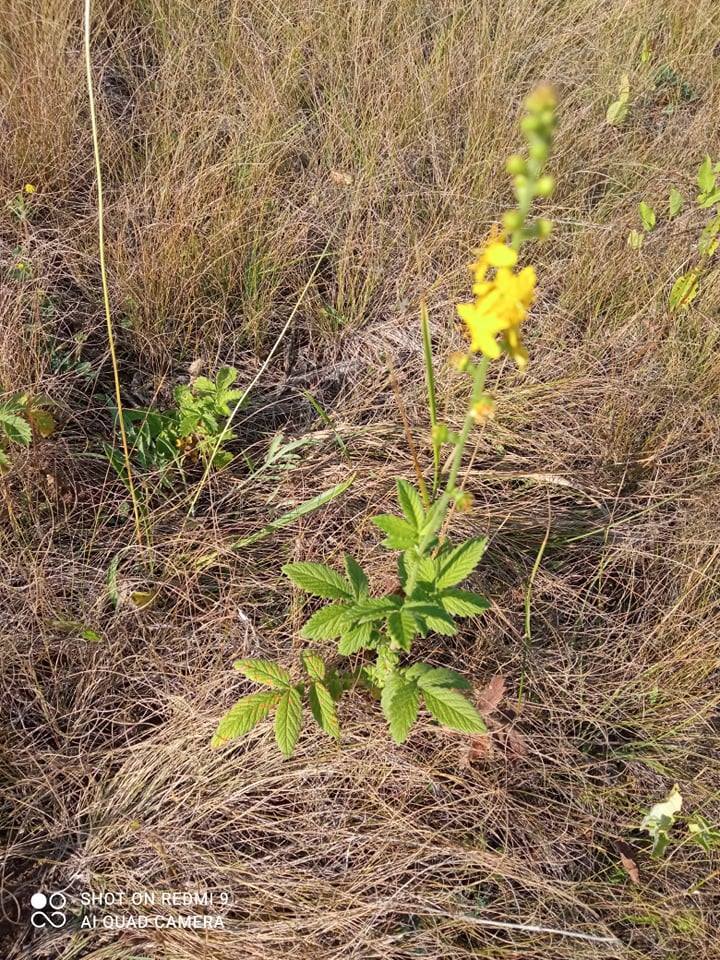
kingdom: Plantae
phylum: Tracheophyta
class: Magnoliopsida
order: Rosales
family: Rosaceae
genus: Agrimonia
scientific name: Agrimonia eupatoria
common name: Agrimony
